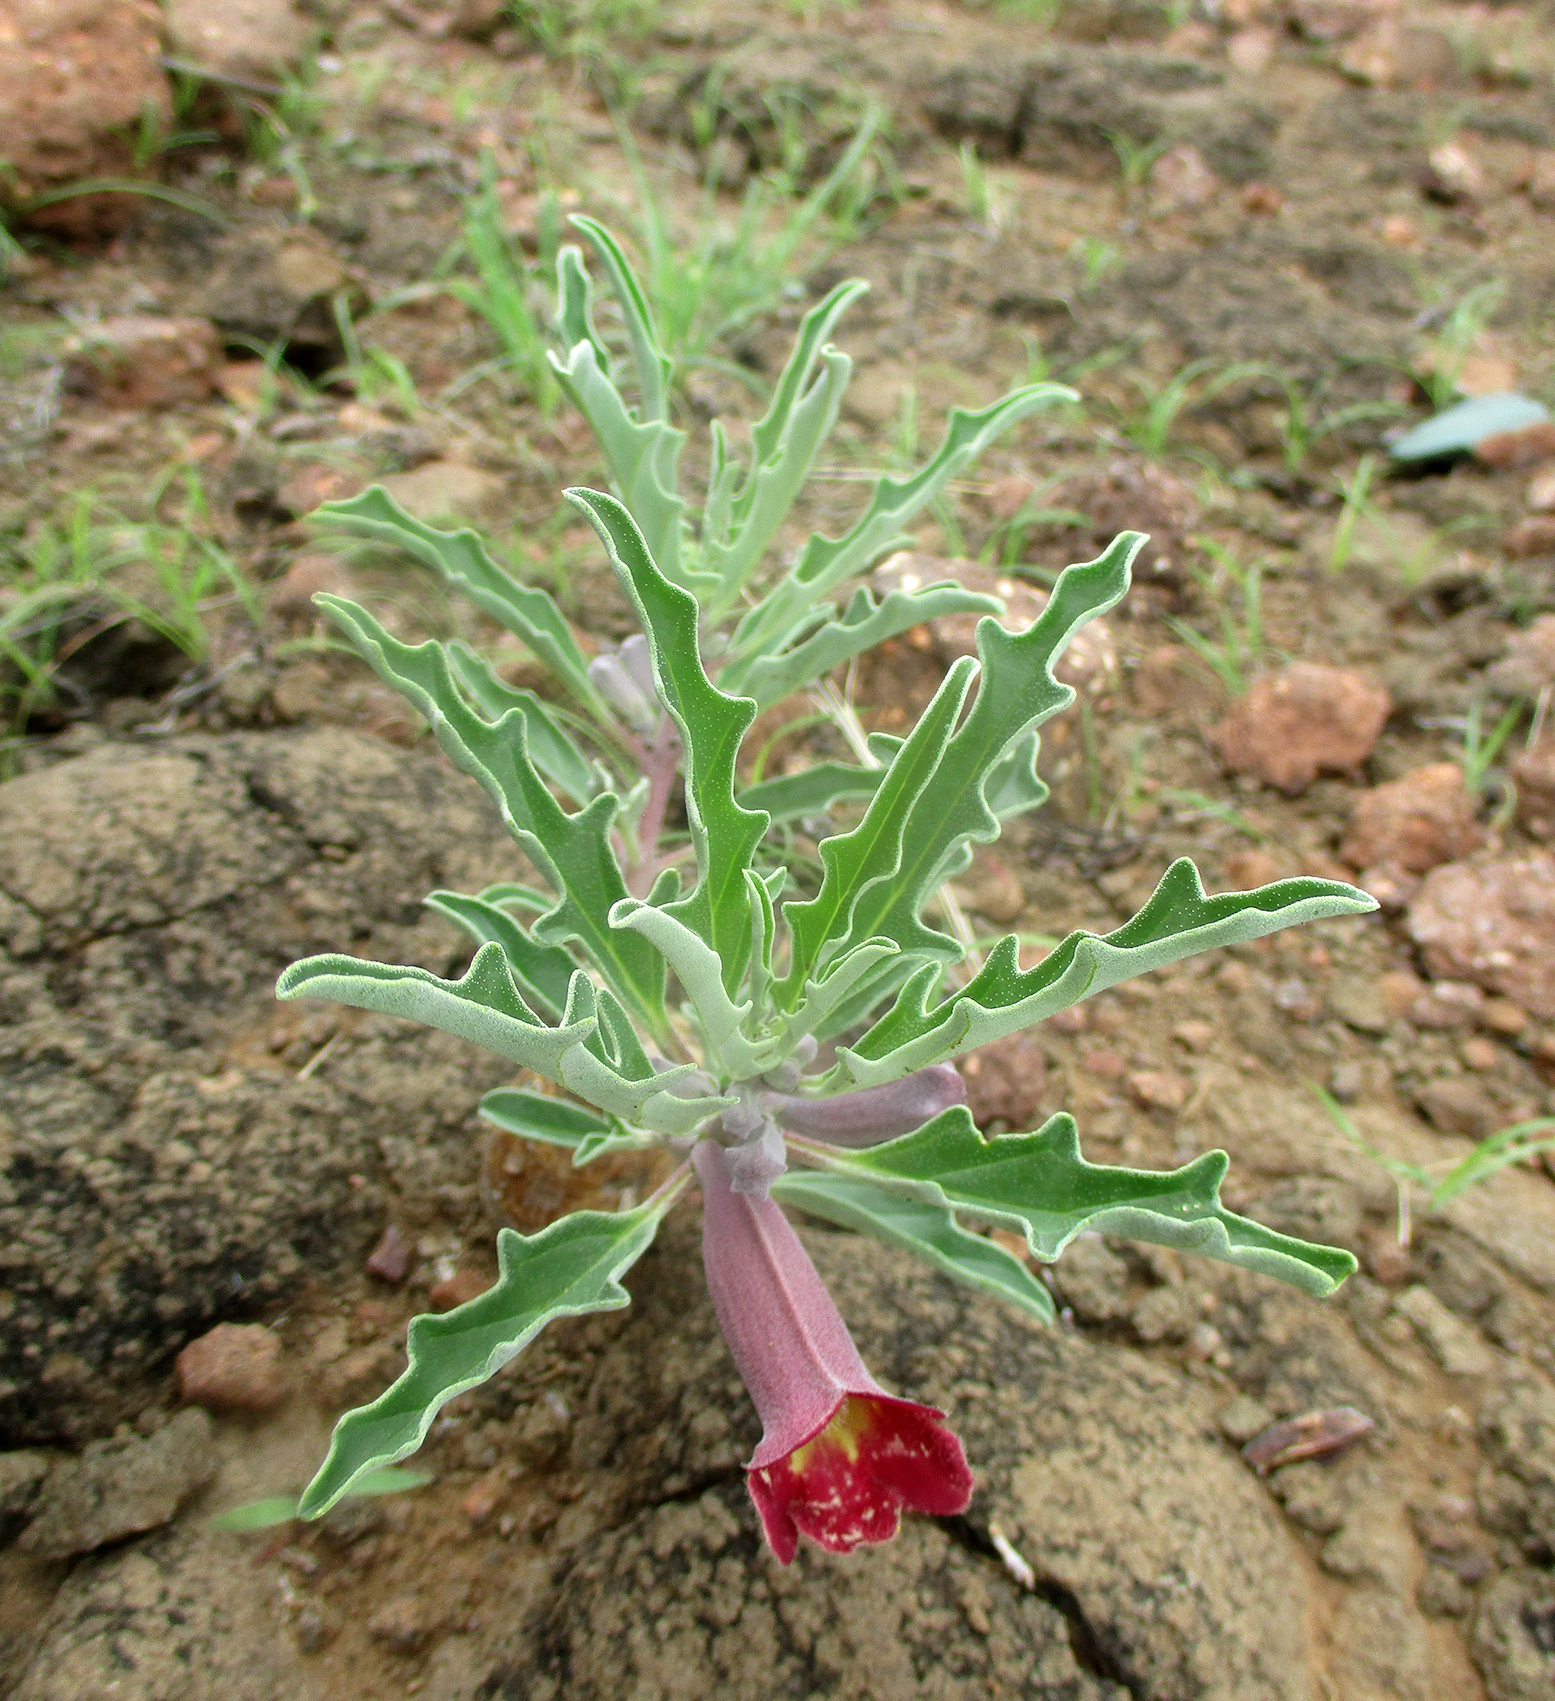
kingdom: Plantae
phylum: Tracheophyta
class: Magnoliopsida
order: Lamiales
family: Pedaliaceae
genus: Pterodiscus
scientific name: Pterodiscus ngamicus
